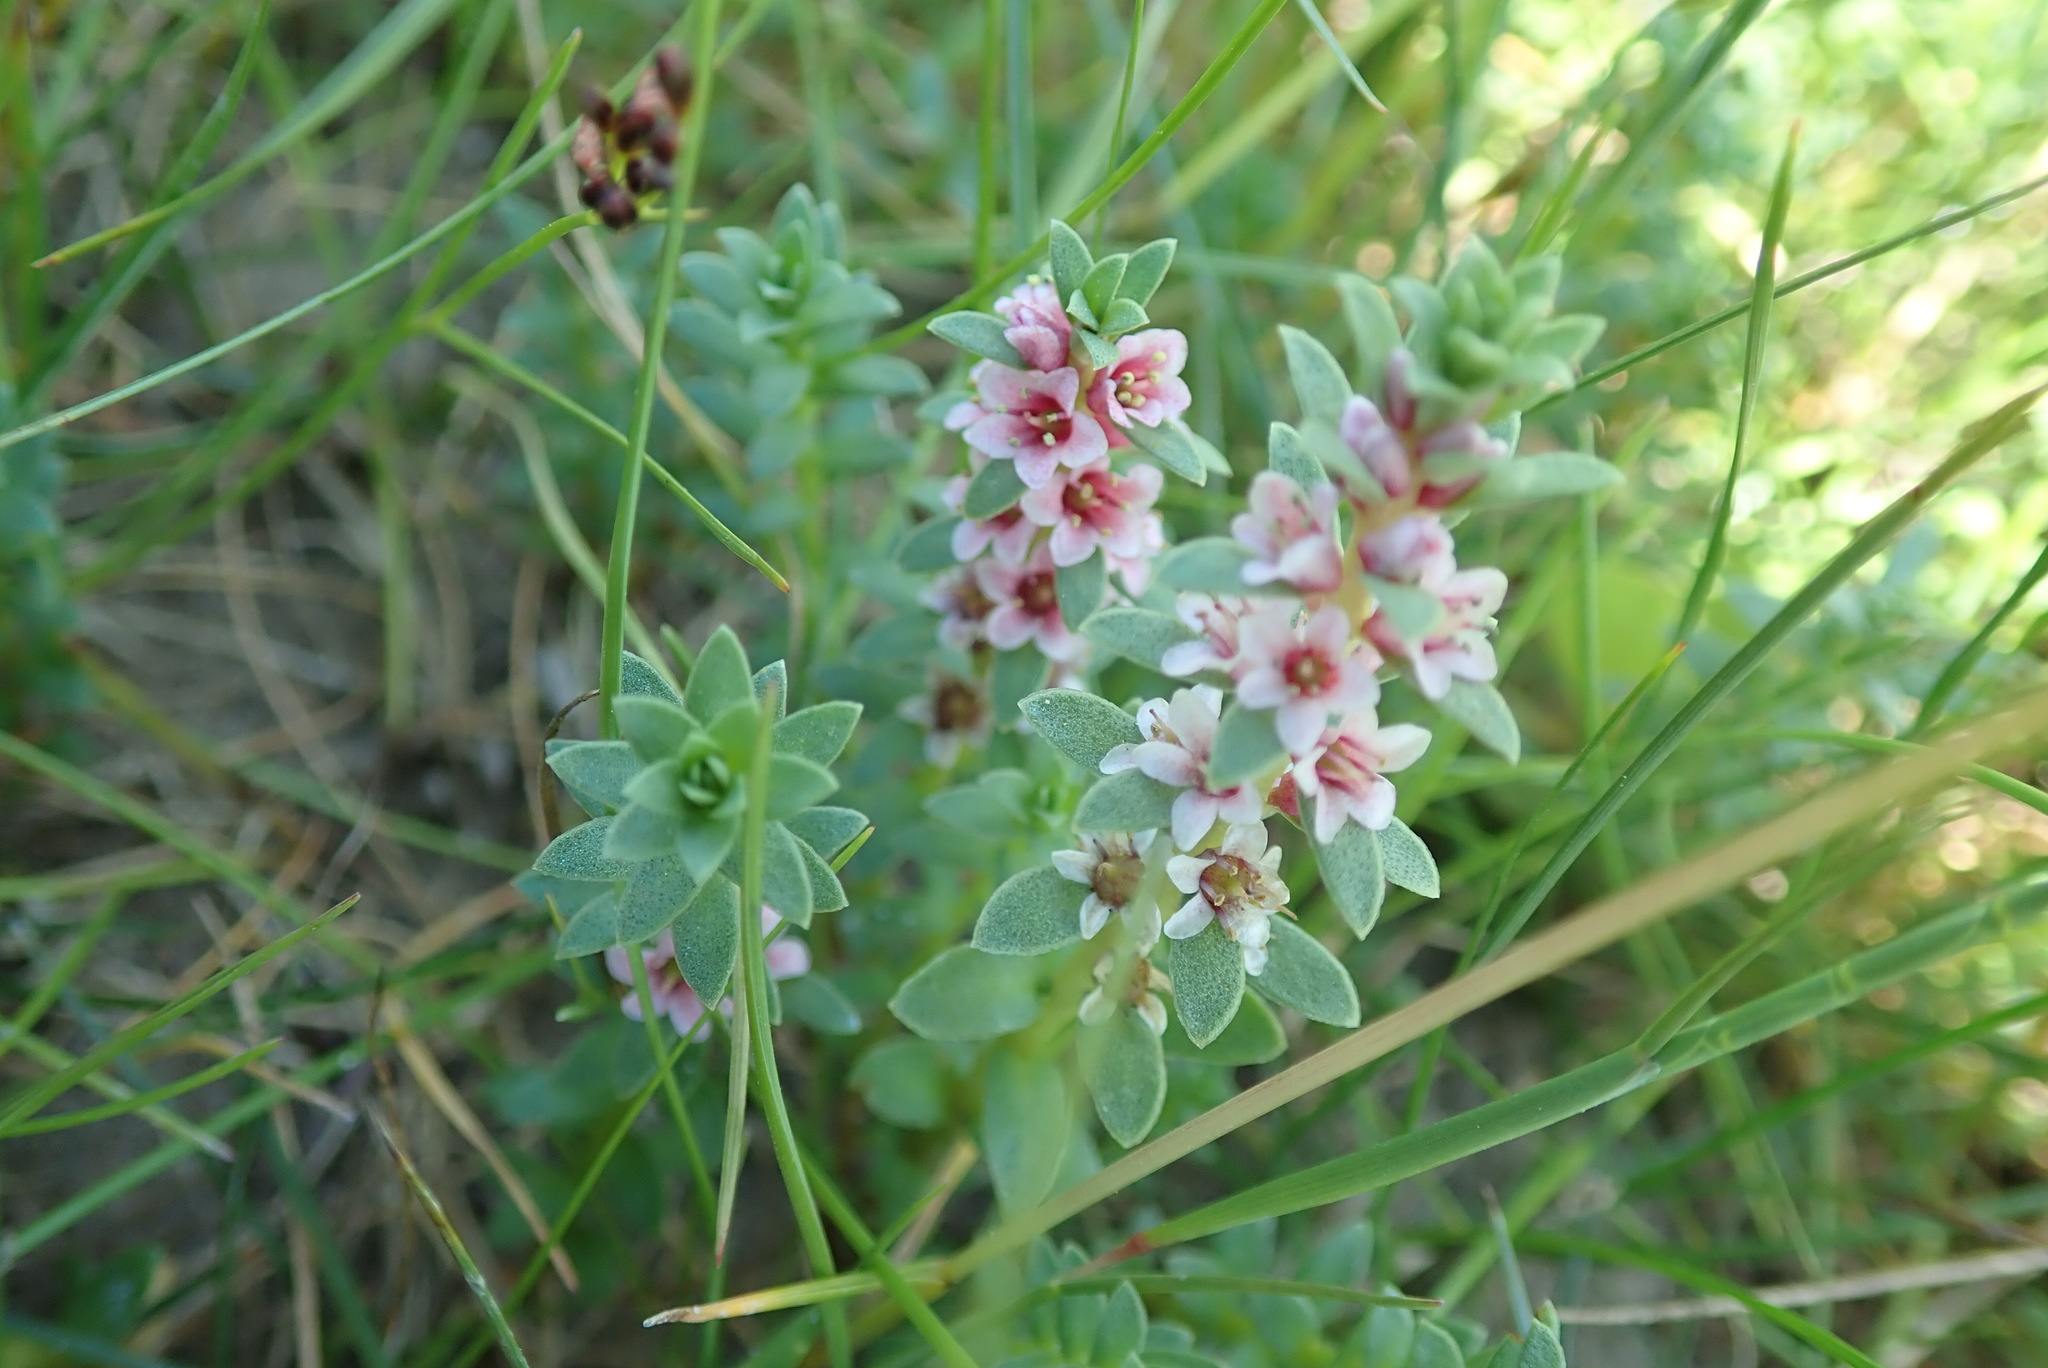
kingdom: Plantae
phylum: Tracheophyta
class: Magnoliopsida
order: Ericales
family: Primulaceae
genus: Lysimachia
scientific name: Lysimachia maritima
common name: Sea milkwort
